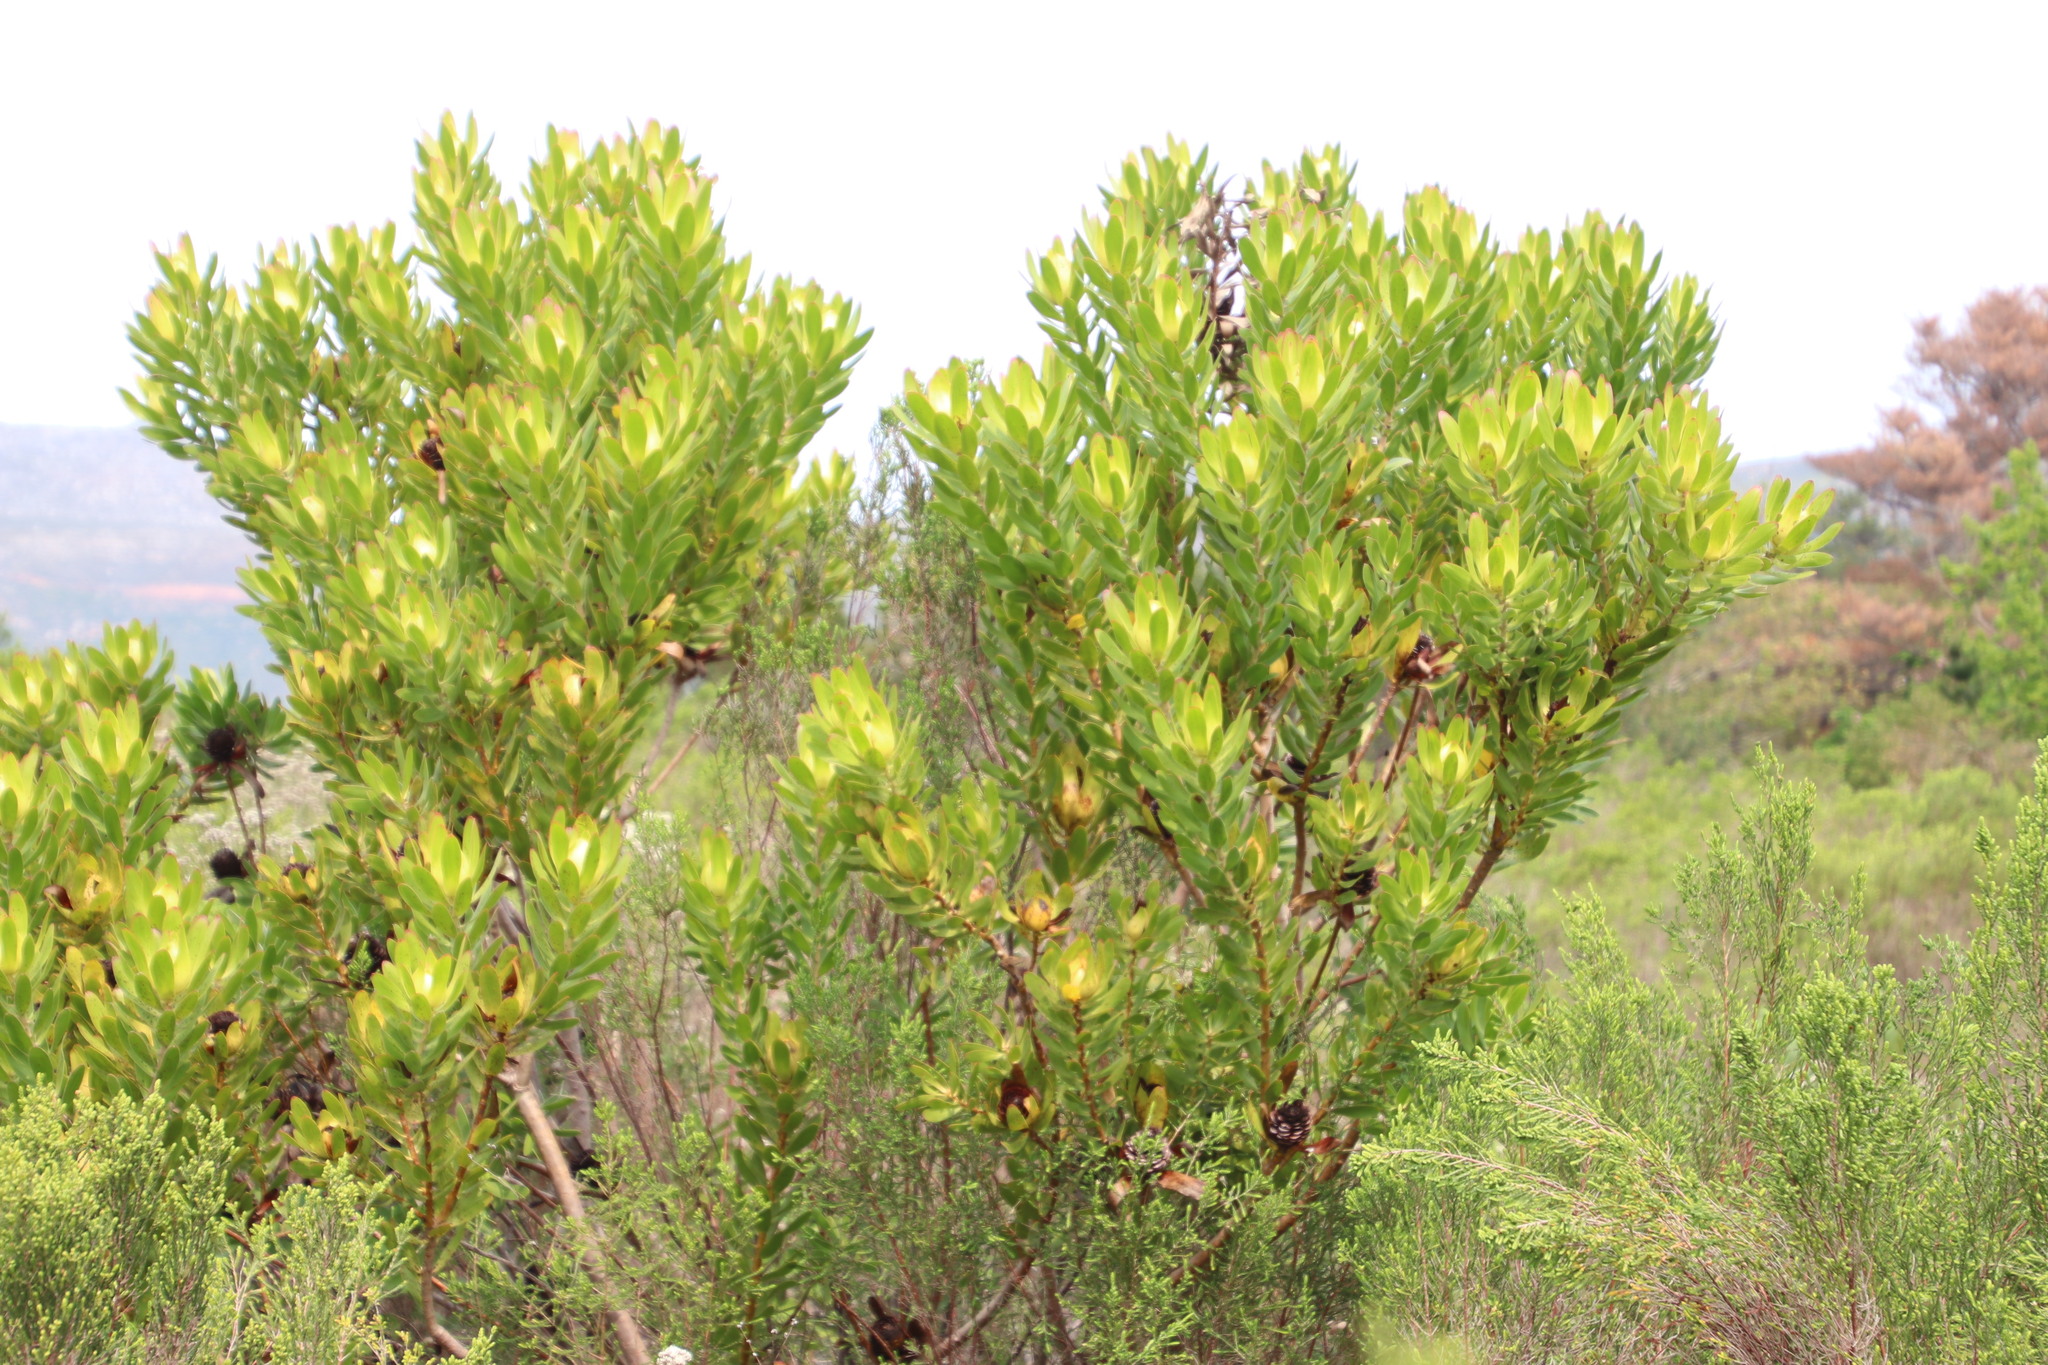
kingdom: Plantae
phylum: Tracheophyta
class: Magnoliopsida
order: Proteales
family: Proteaceae
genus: Leucadendron
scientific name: Leucadendron laureolum
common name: Golden sunshinebush
